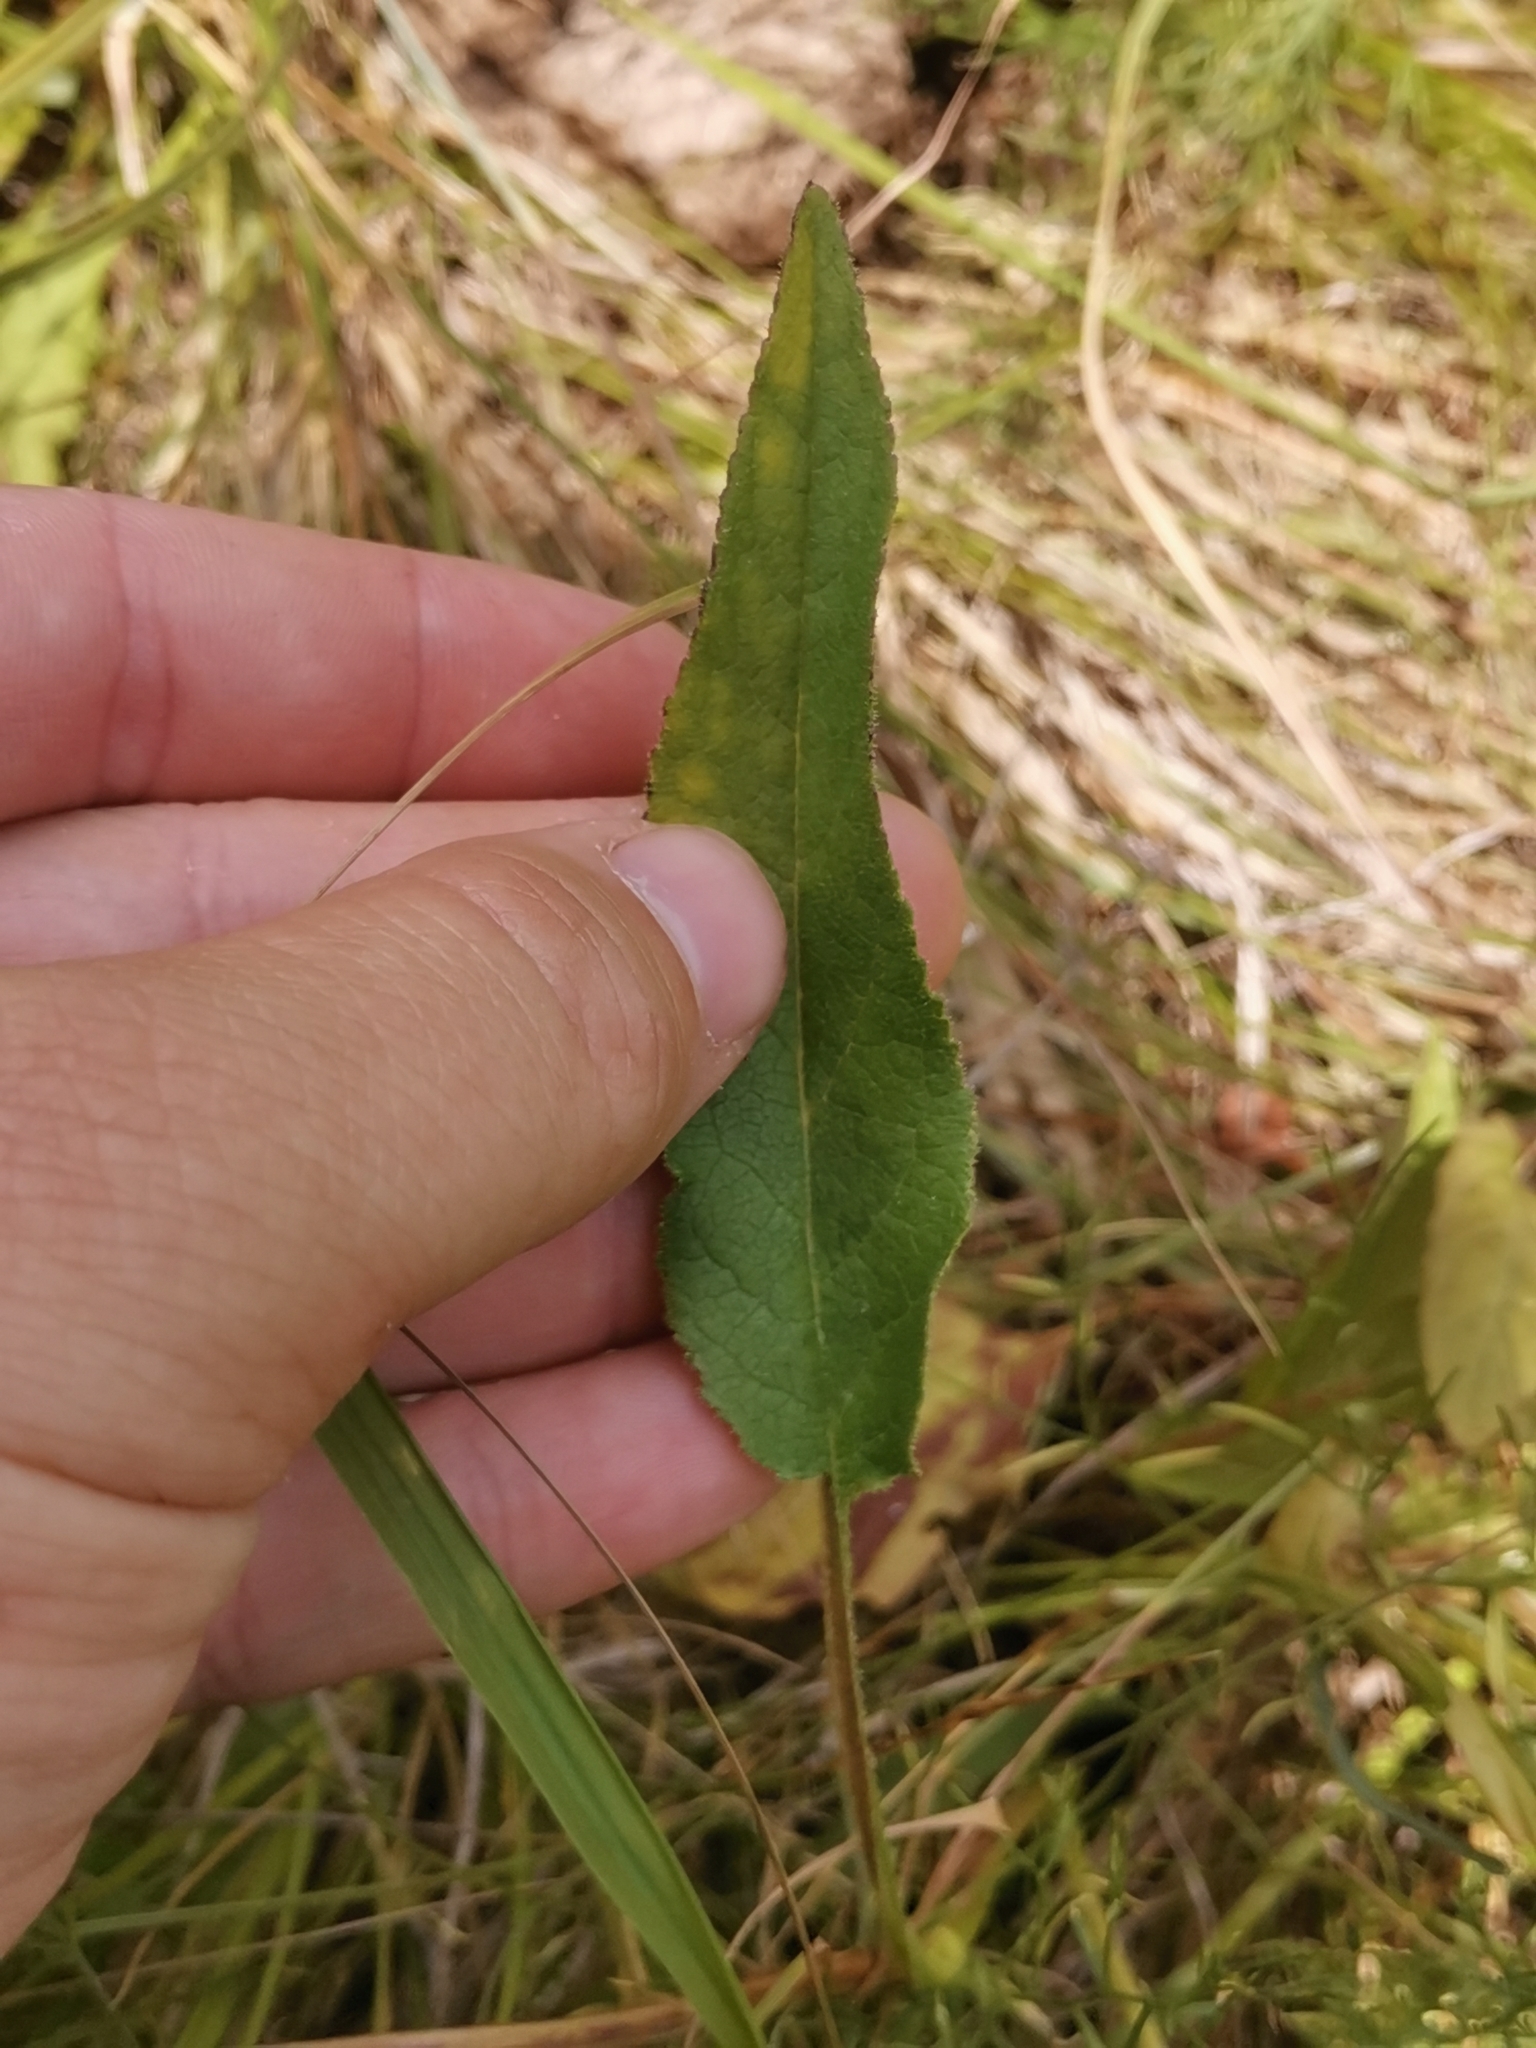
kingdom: Plantae
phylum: Tracheophyta
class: Magnoliopsida
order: Asterales
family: Campanulaceae
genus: Campanula
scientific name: Campanula glomerata
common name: Clustered bellflower
